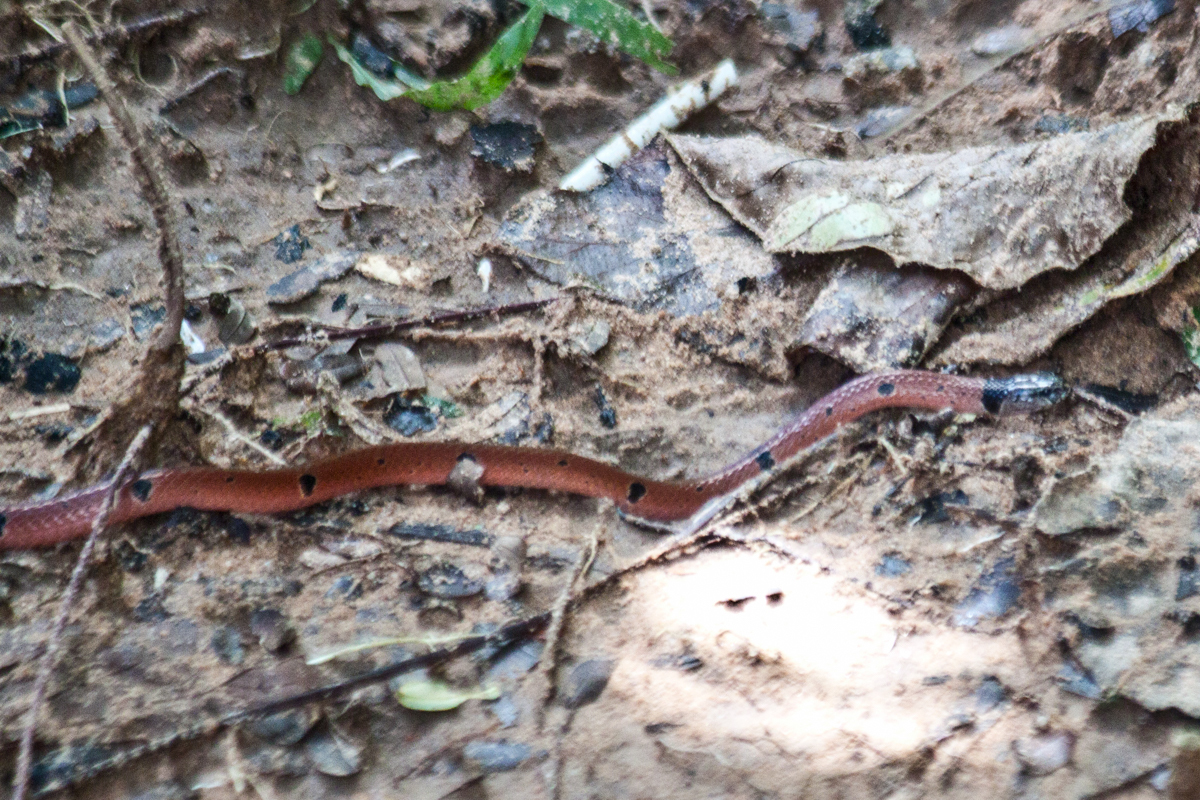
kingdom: Animalia
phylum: Chordata
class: Squamata
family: Elapidae
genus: Calliophis
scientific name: Calliophis maculiceps
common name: Speckled coral snake
